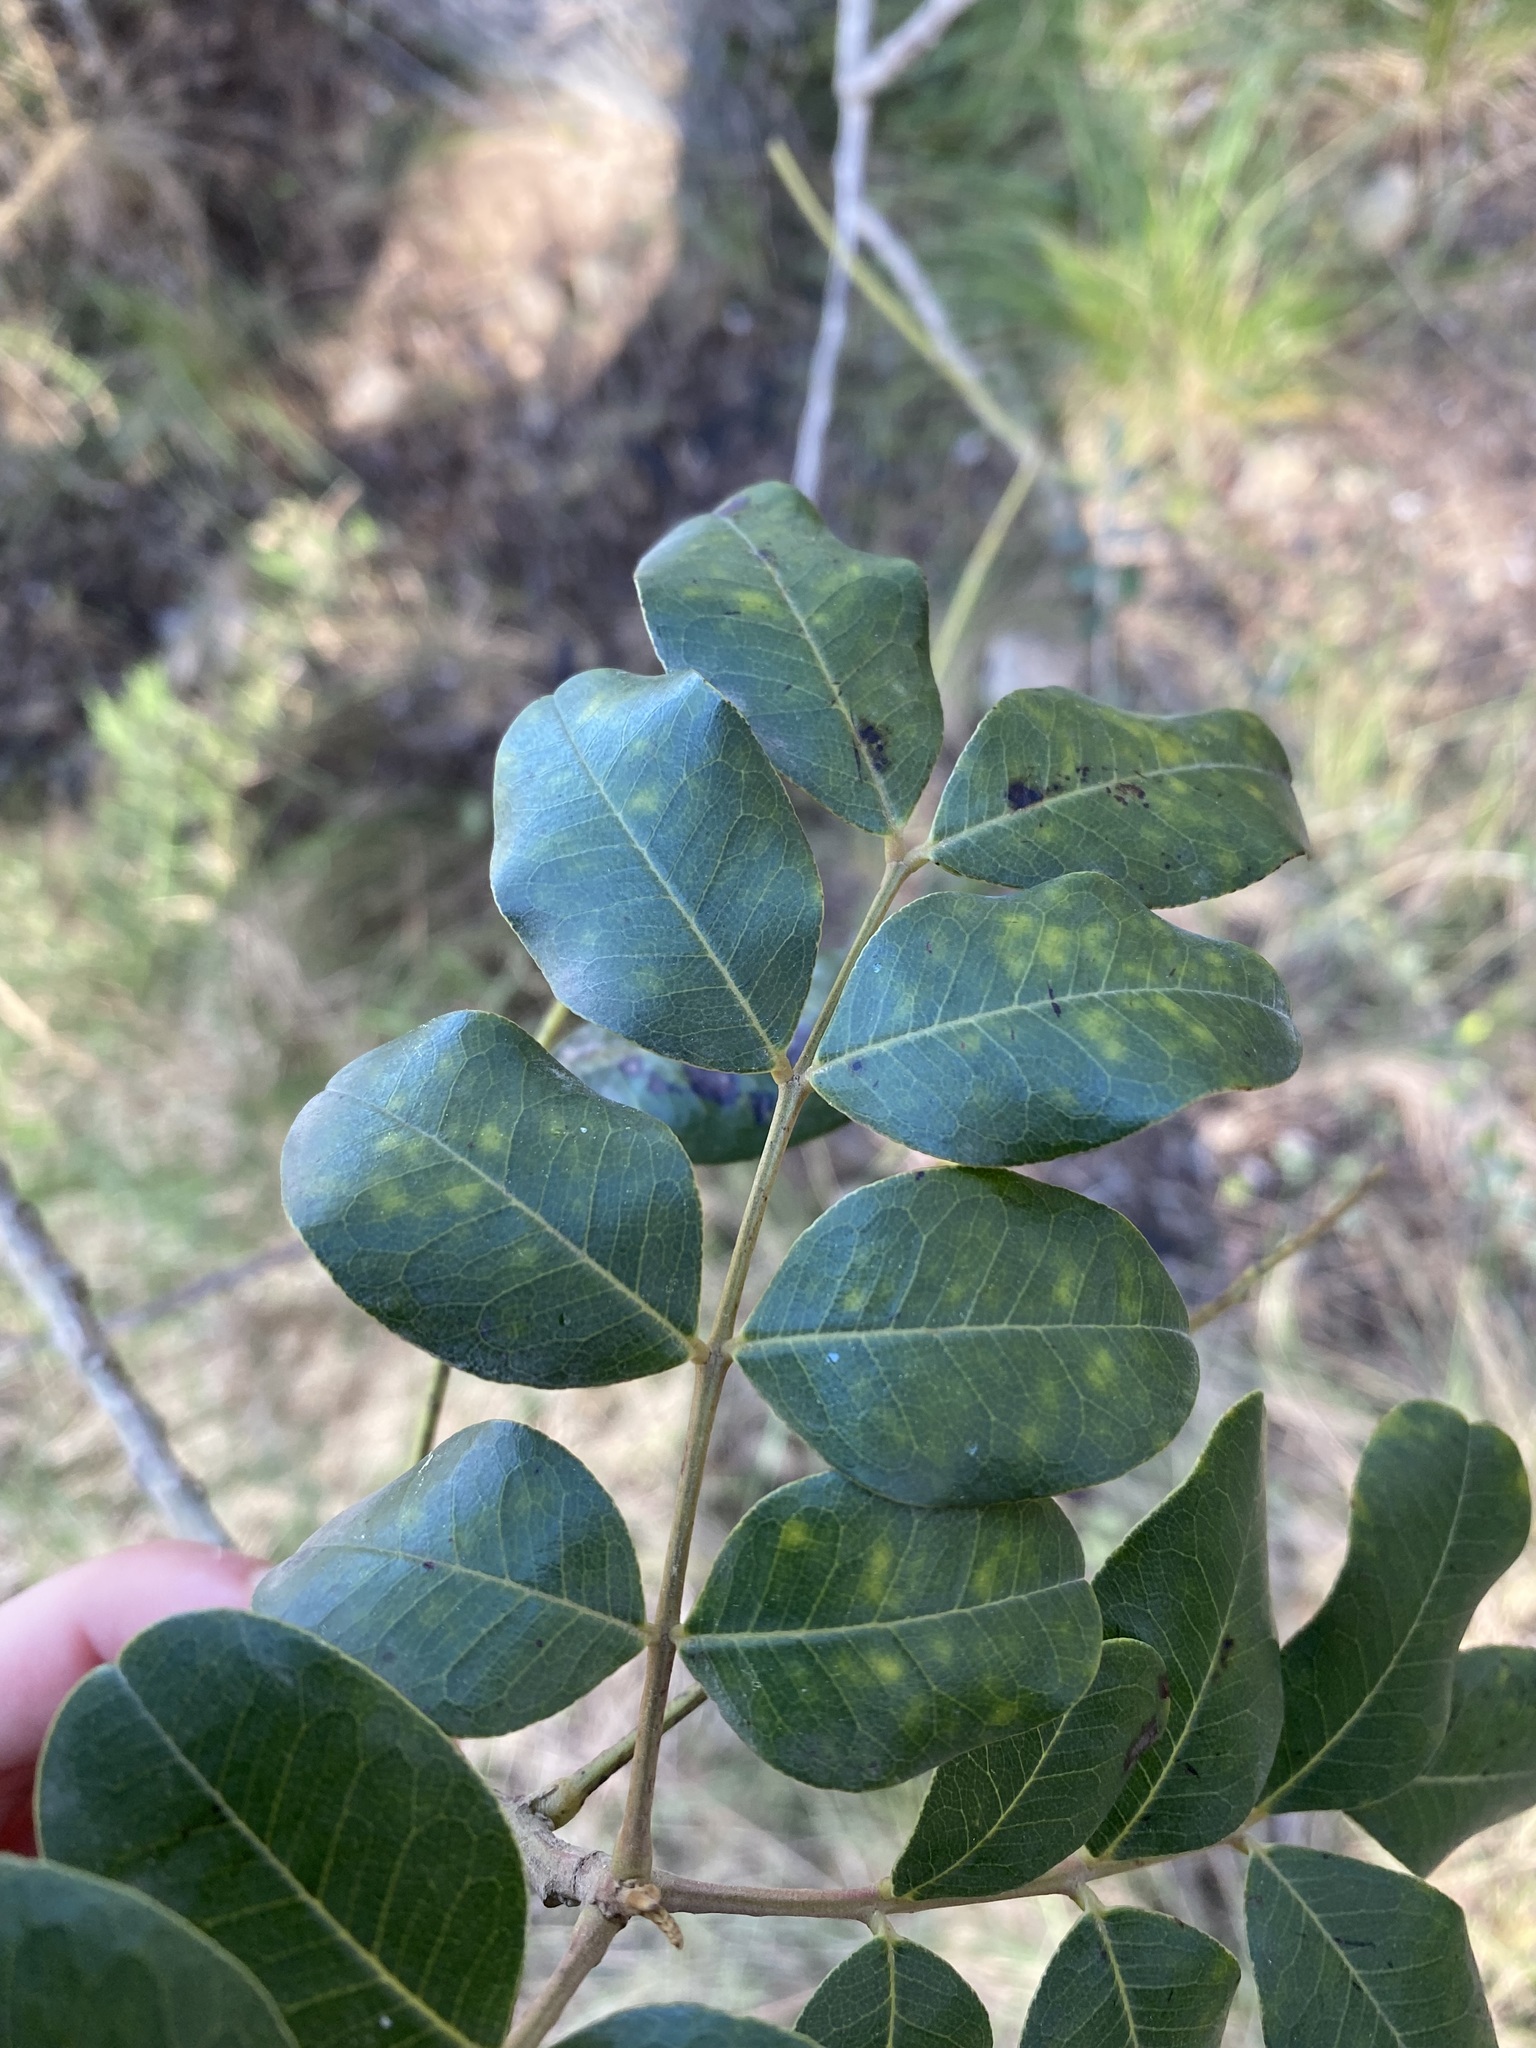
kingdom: Plantae
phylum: Tracheophyta
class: Magnoliopsida
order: Fabales
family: Fabaceae
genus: Ceratonia
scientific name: Ceratonia siliqua
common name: Carob
